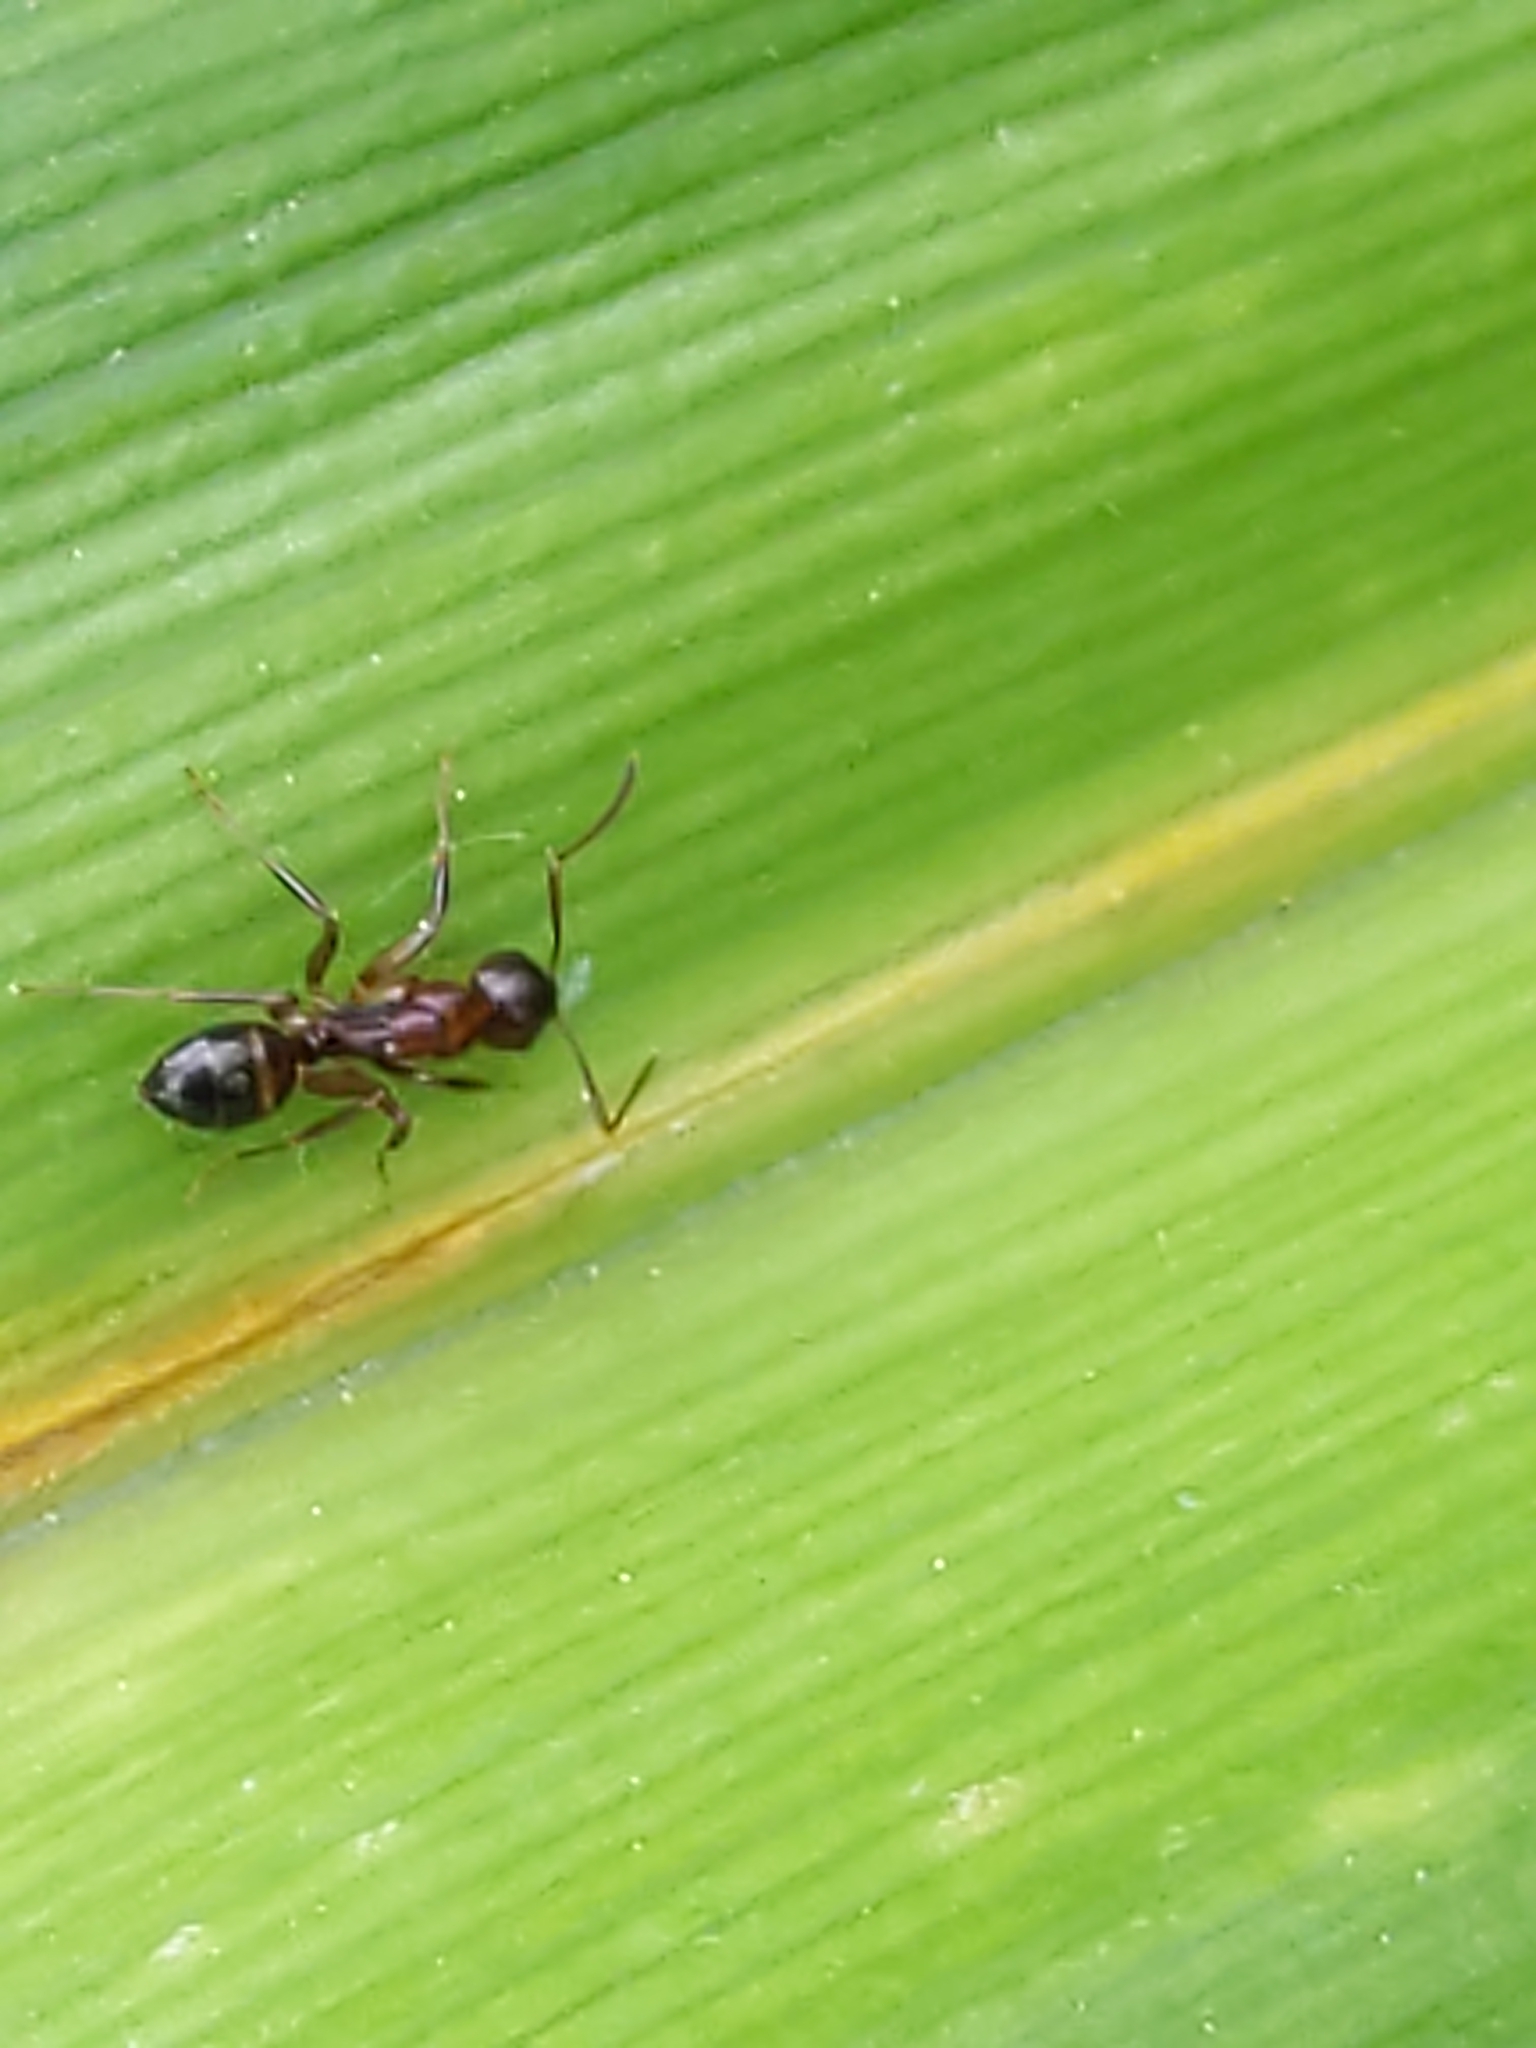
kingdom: Animalia
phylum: Arthropoda
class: Insecta
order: Hymenoptera
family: Formicidae
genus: Camponotus
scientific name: Camponotus subbarbatus
